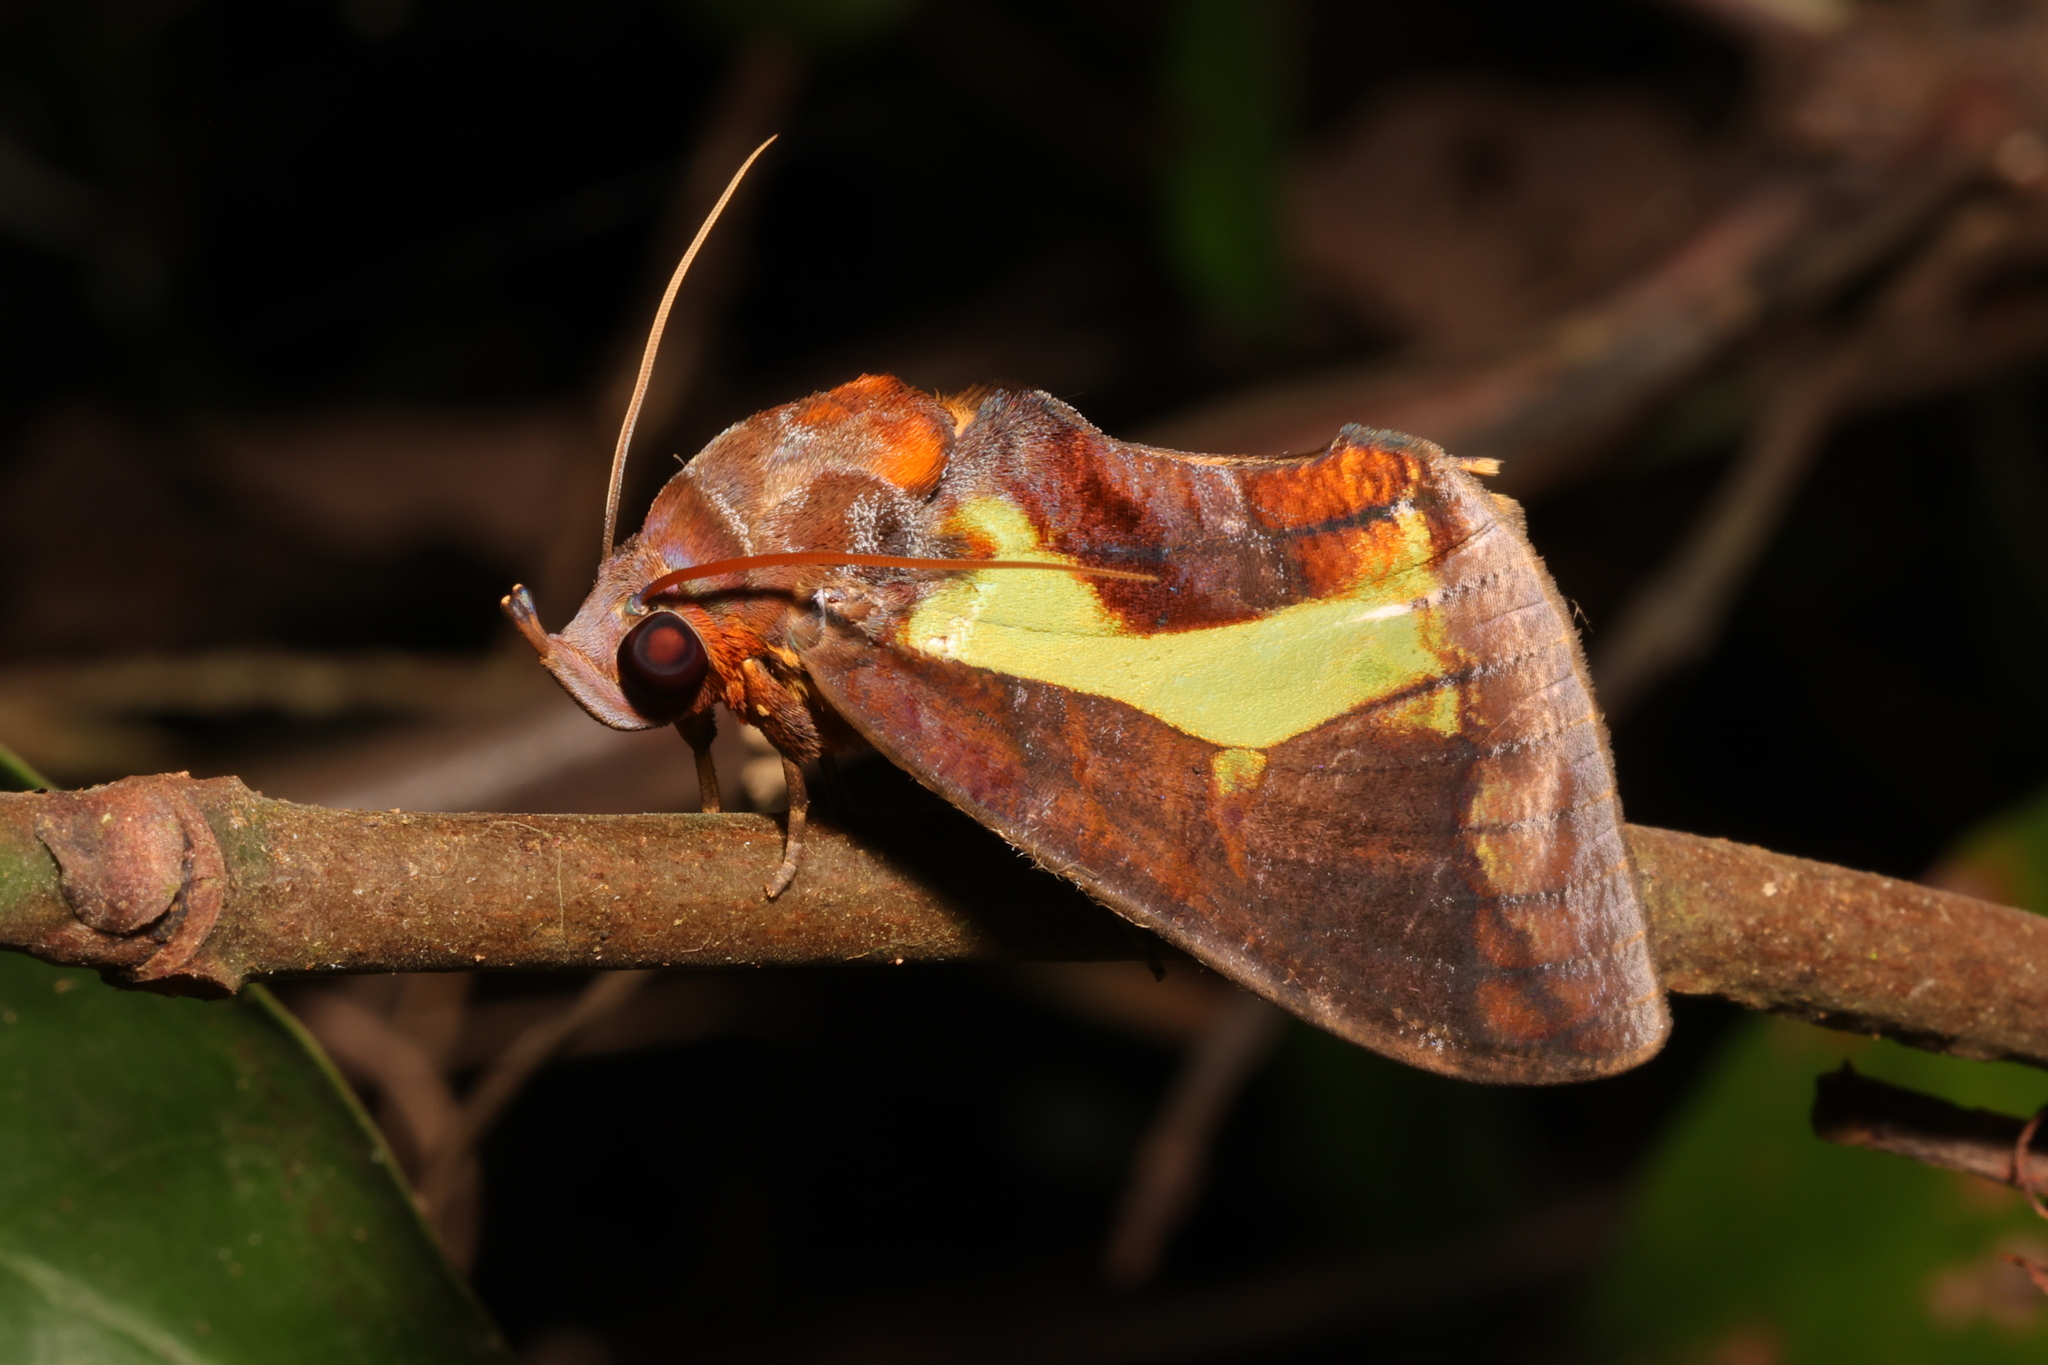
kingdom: Animalia
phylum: Arthropoda
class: Insecta
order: Lepidoptera
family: Erebidae
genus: Eudocima
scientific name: Eudocima homaena
